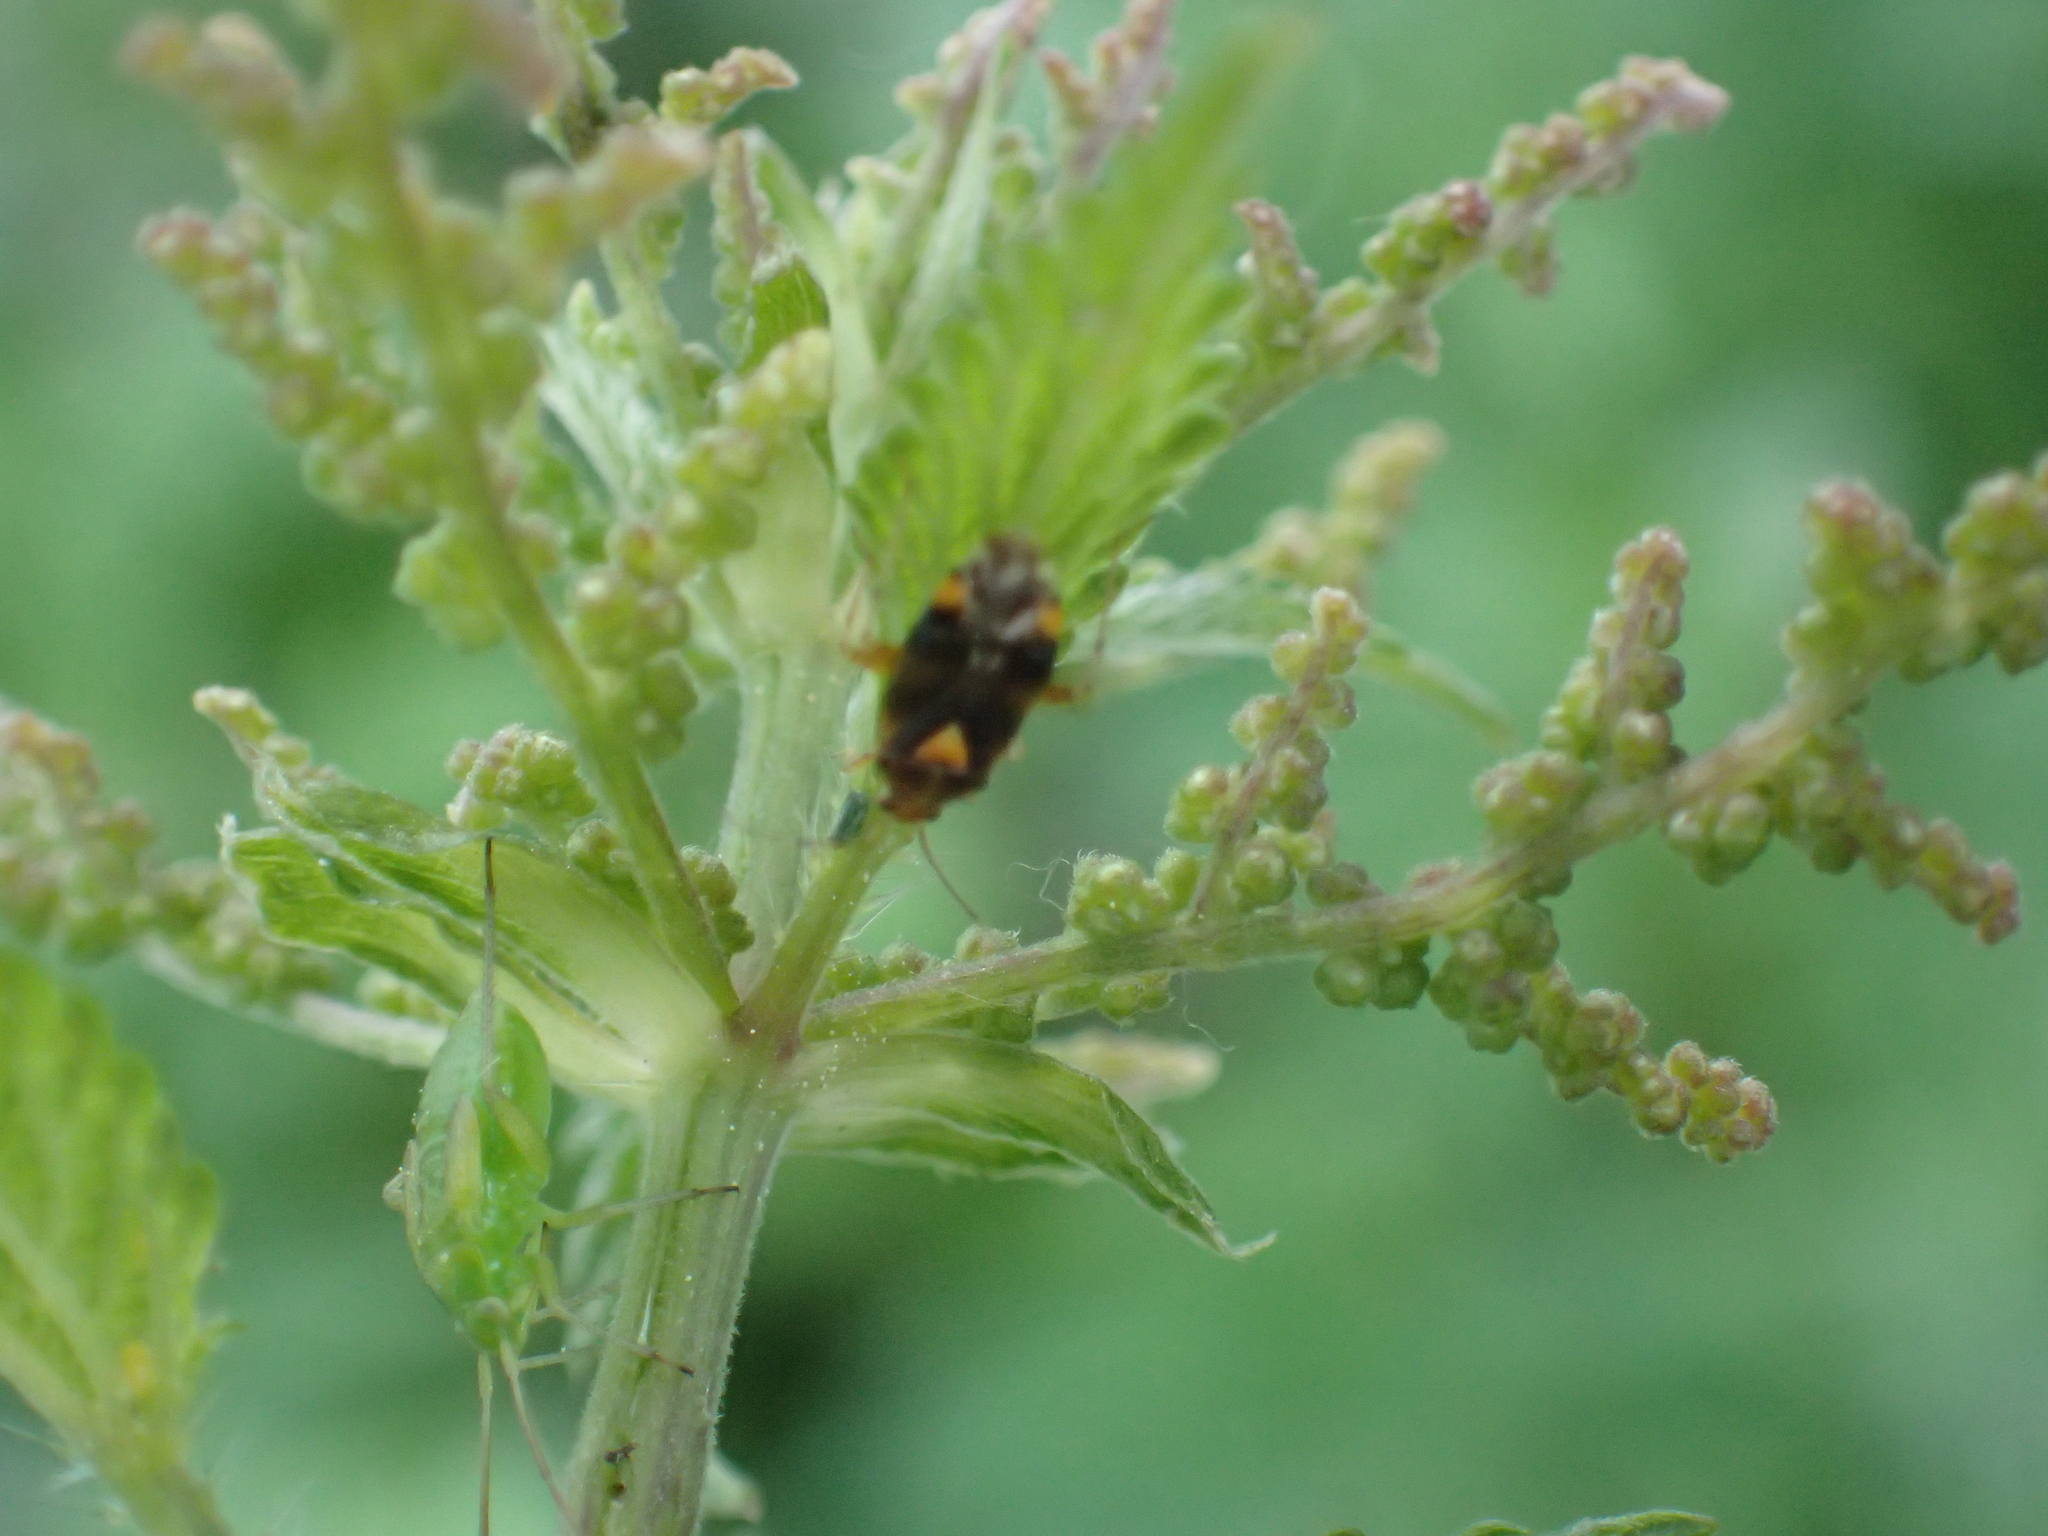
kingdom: Animalia
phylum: Arthropoda
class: Insecta
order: Hemiptera
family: Miridae
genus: Liocoris
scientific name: Liocoris tripustulatus
